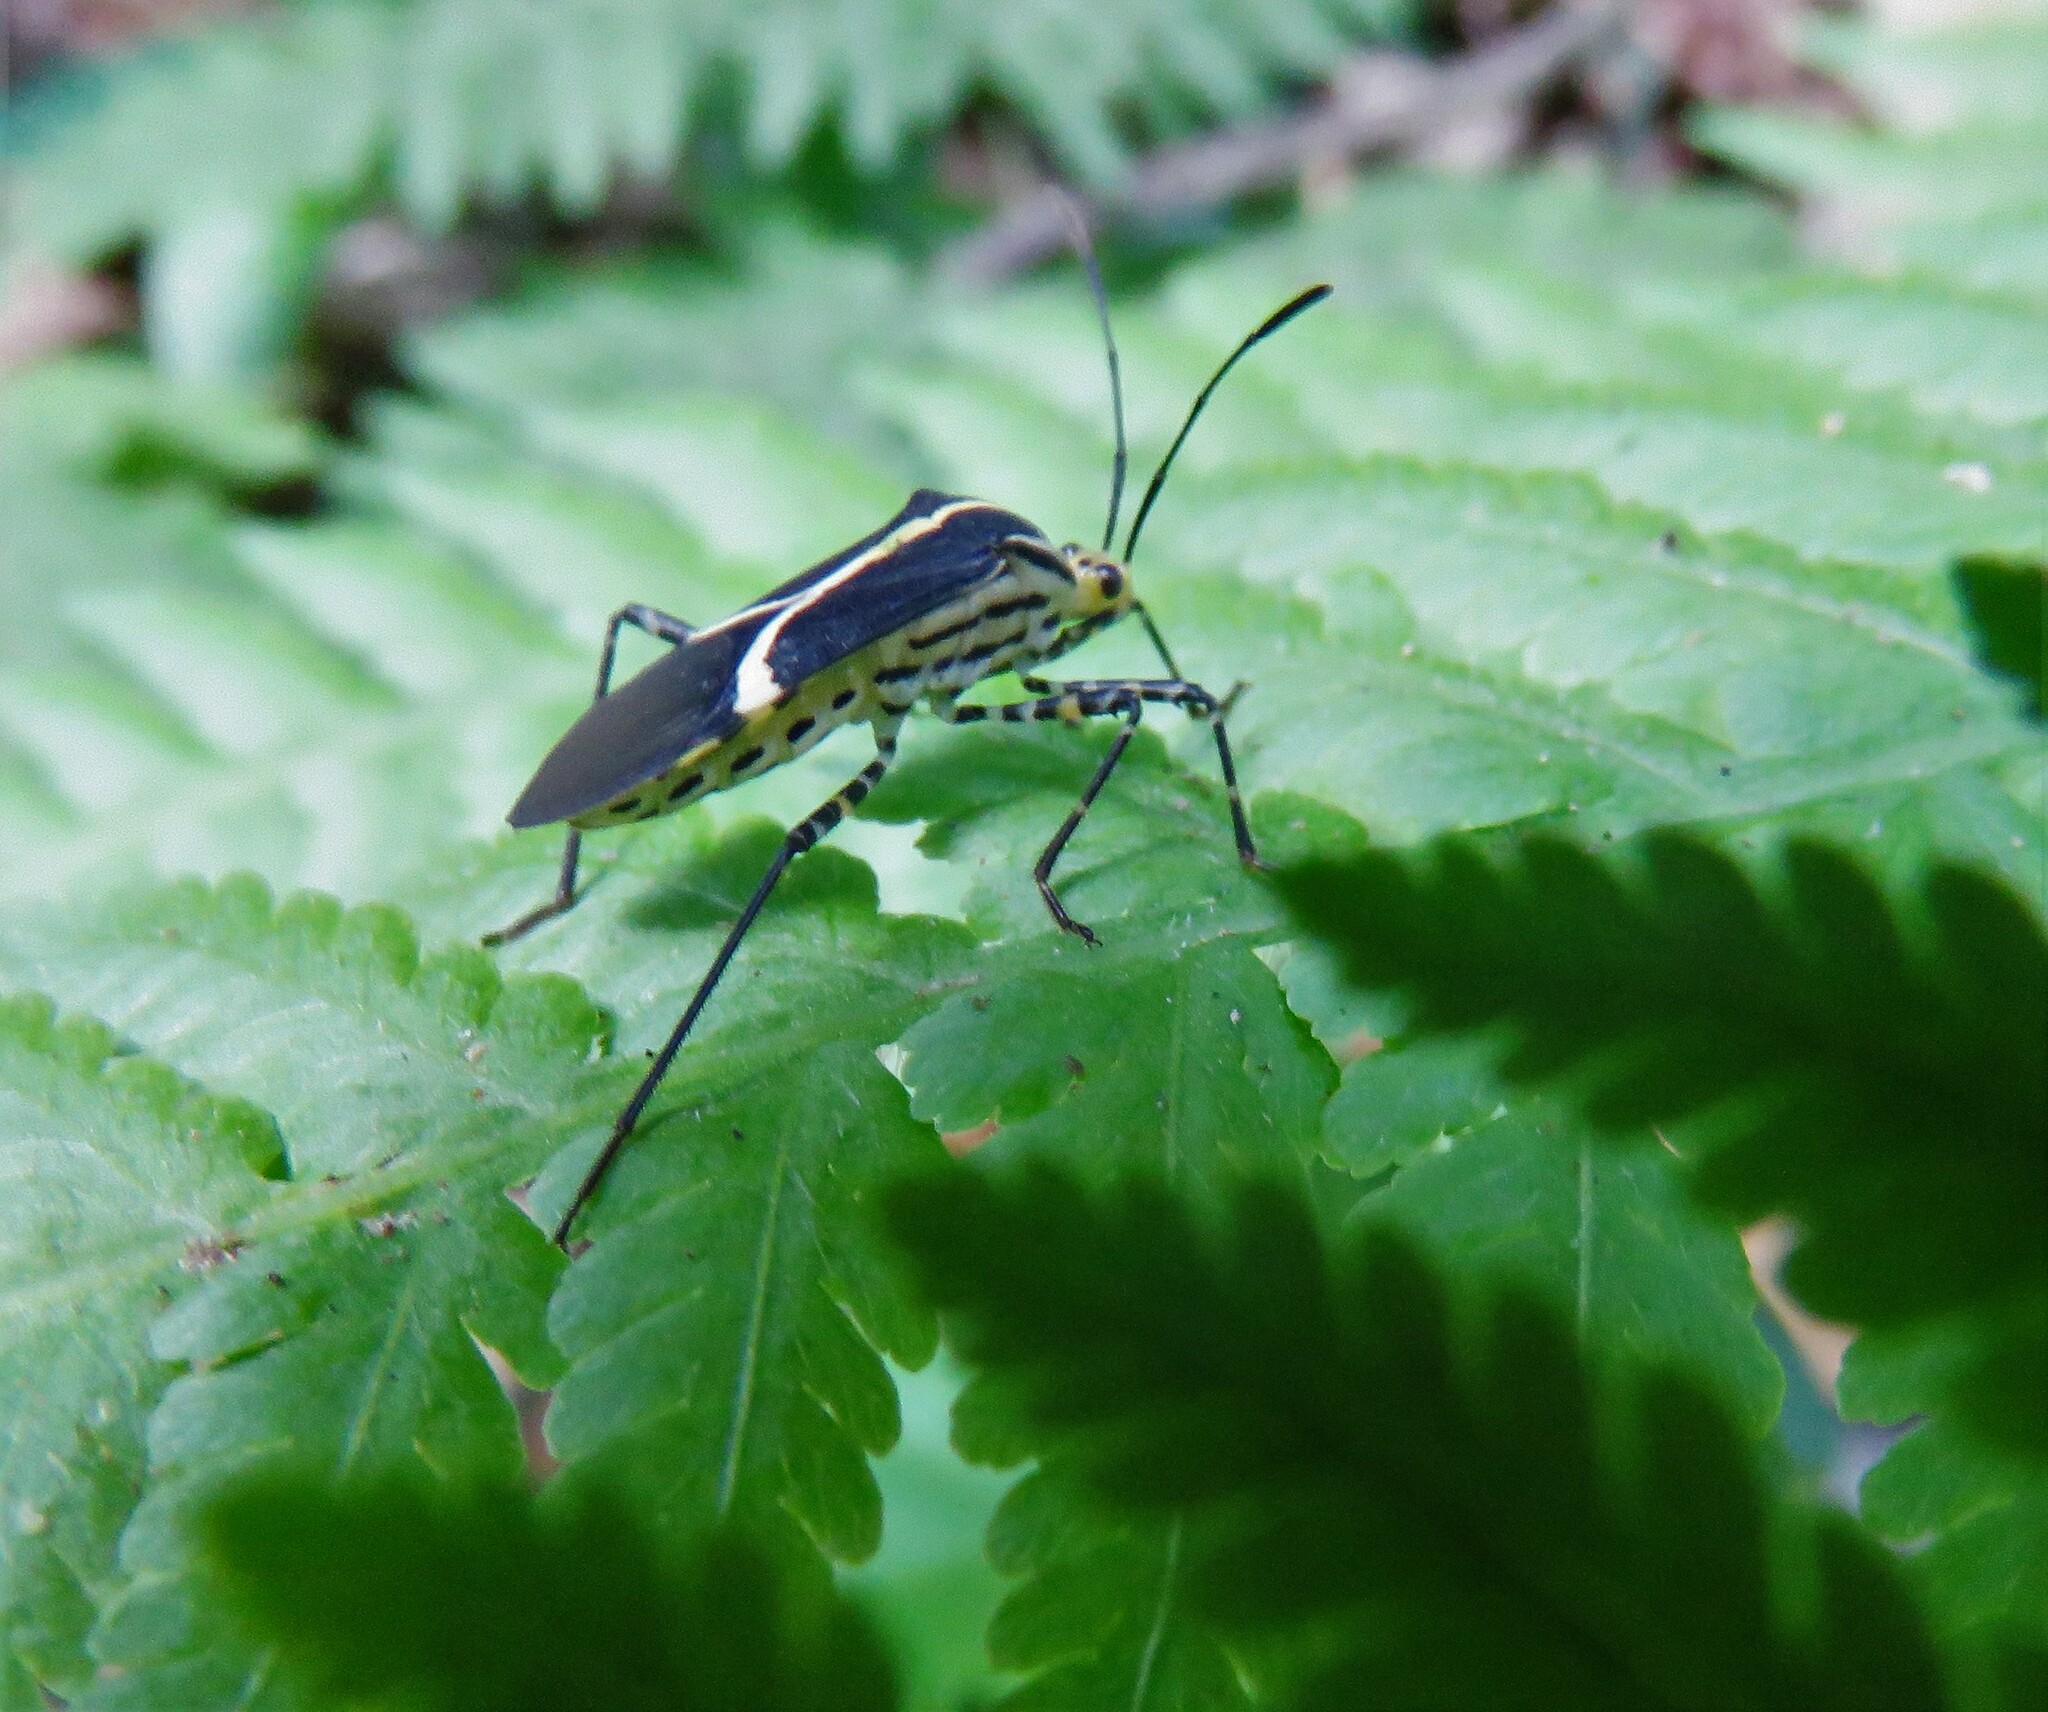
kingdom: Animalia
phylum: Arthropoda
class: Insecta
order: Hemiptera
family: Coreidae
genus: Hypselonotus
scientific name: Hypselonotus linea
